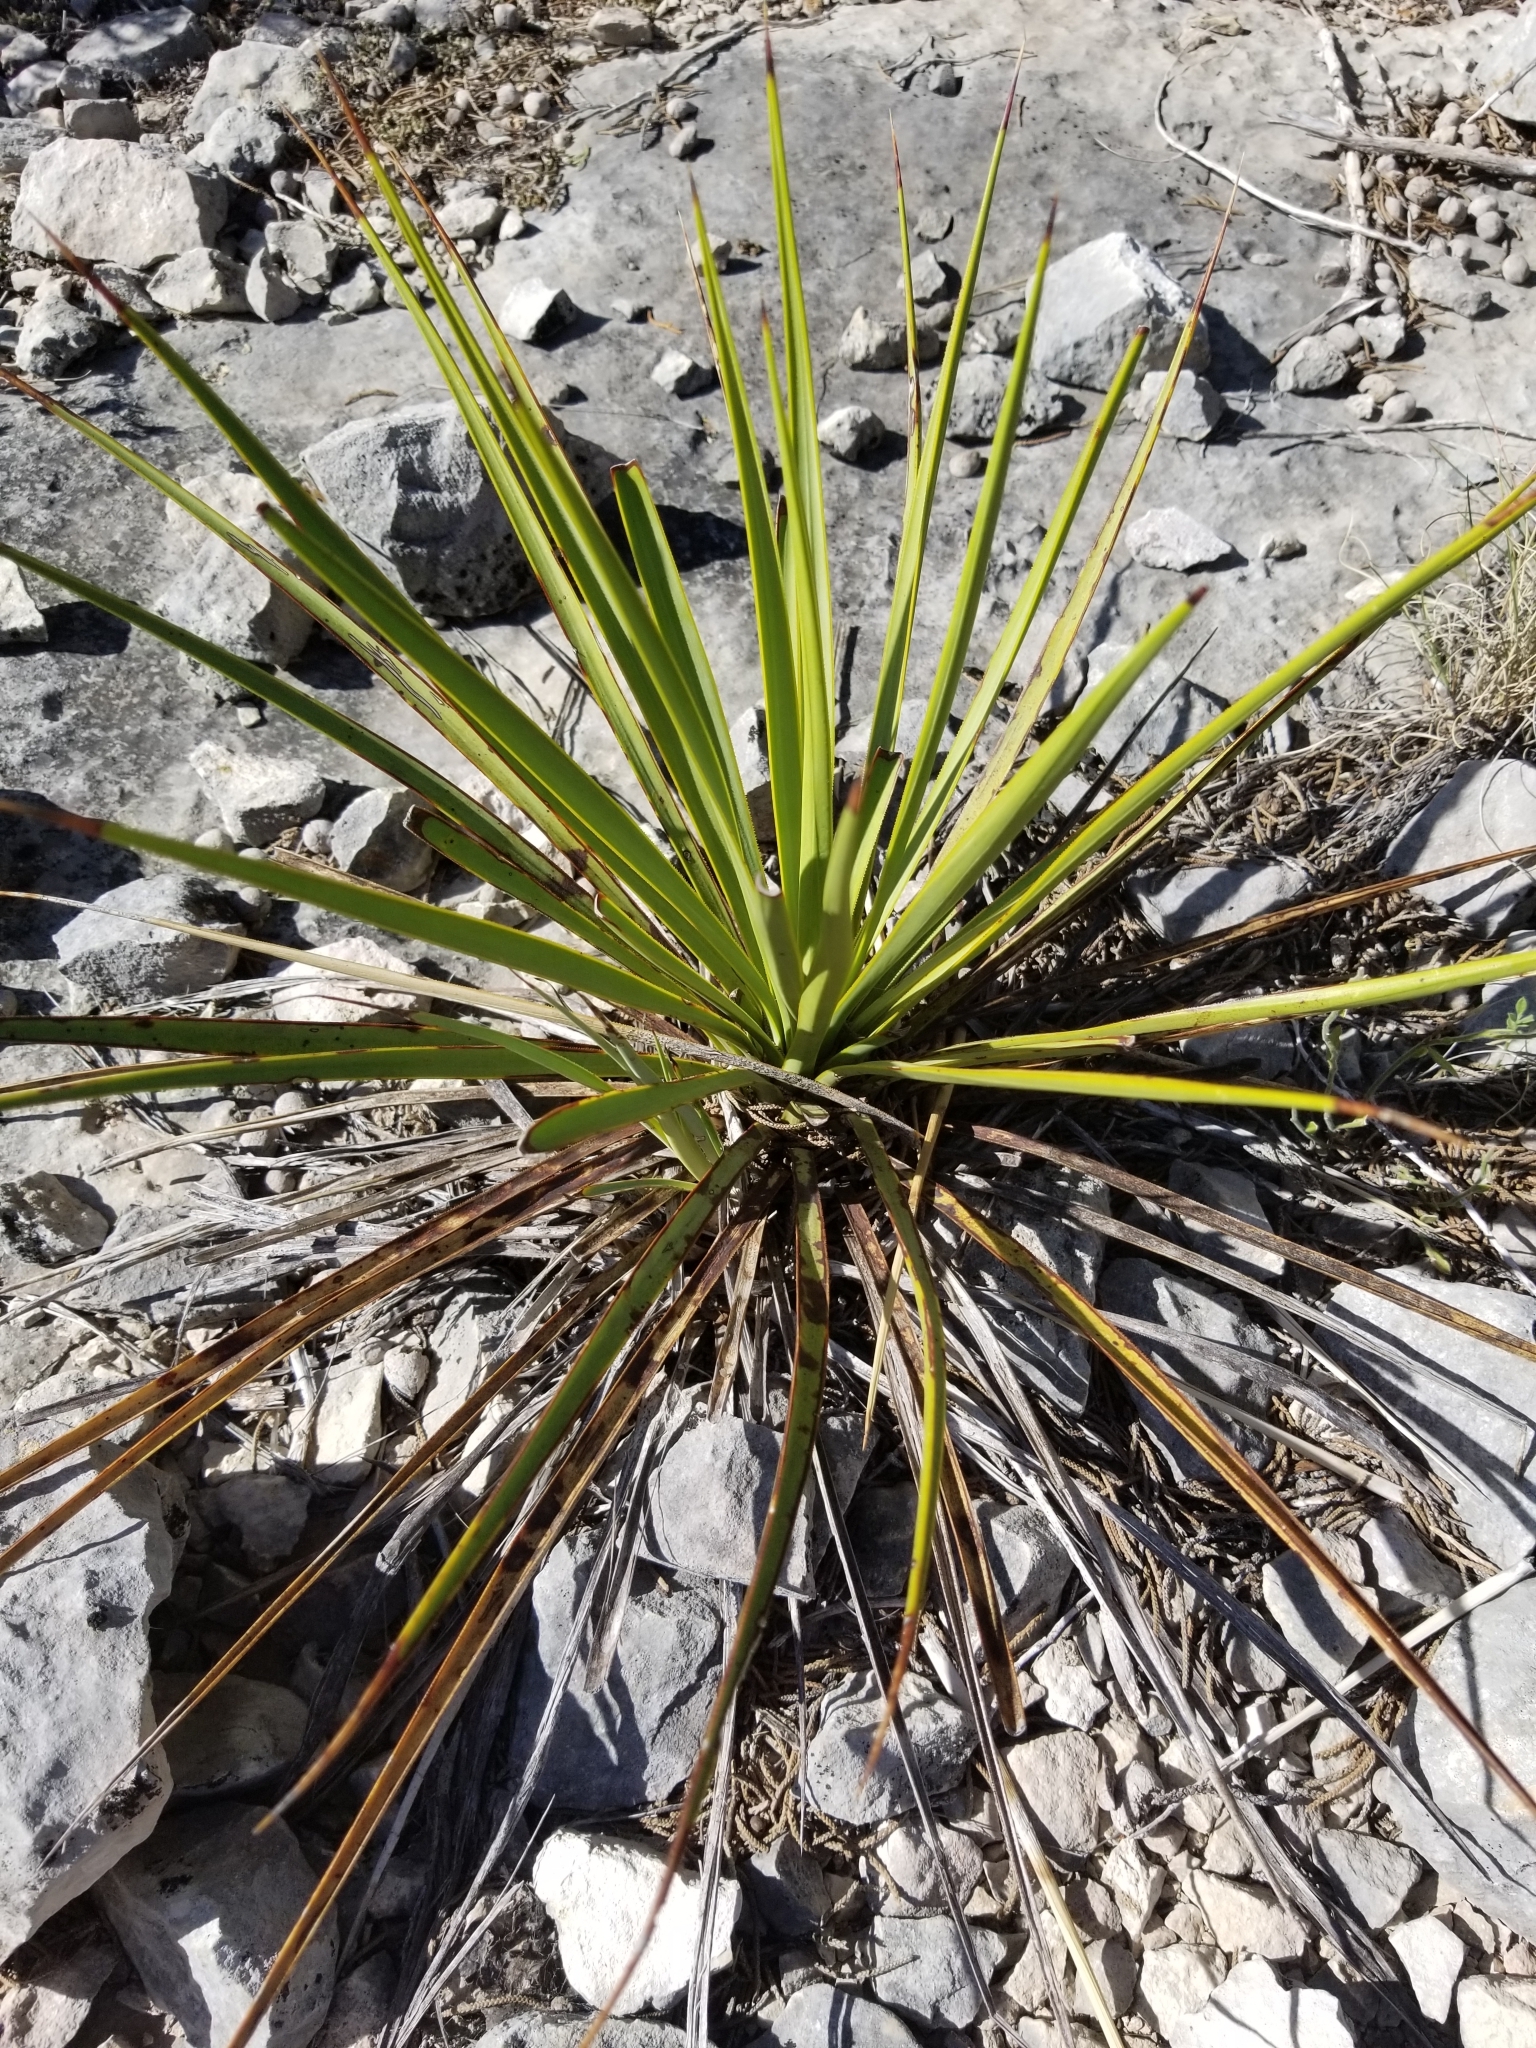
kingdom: Plantae
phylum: Tracheophyta
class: Liliopsida
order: Asparagales
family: Asparagaceae
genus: Yucca
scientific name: Yucca reverchonii
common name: San angelo yucca
